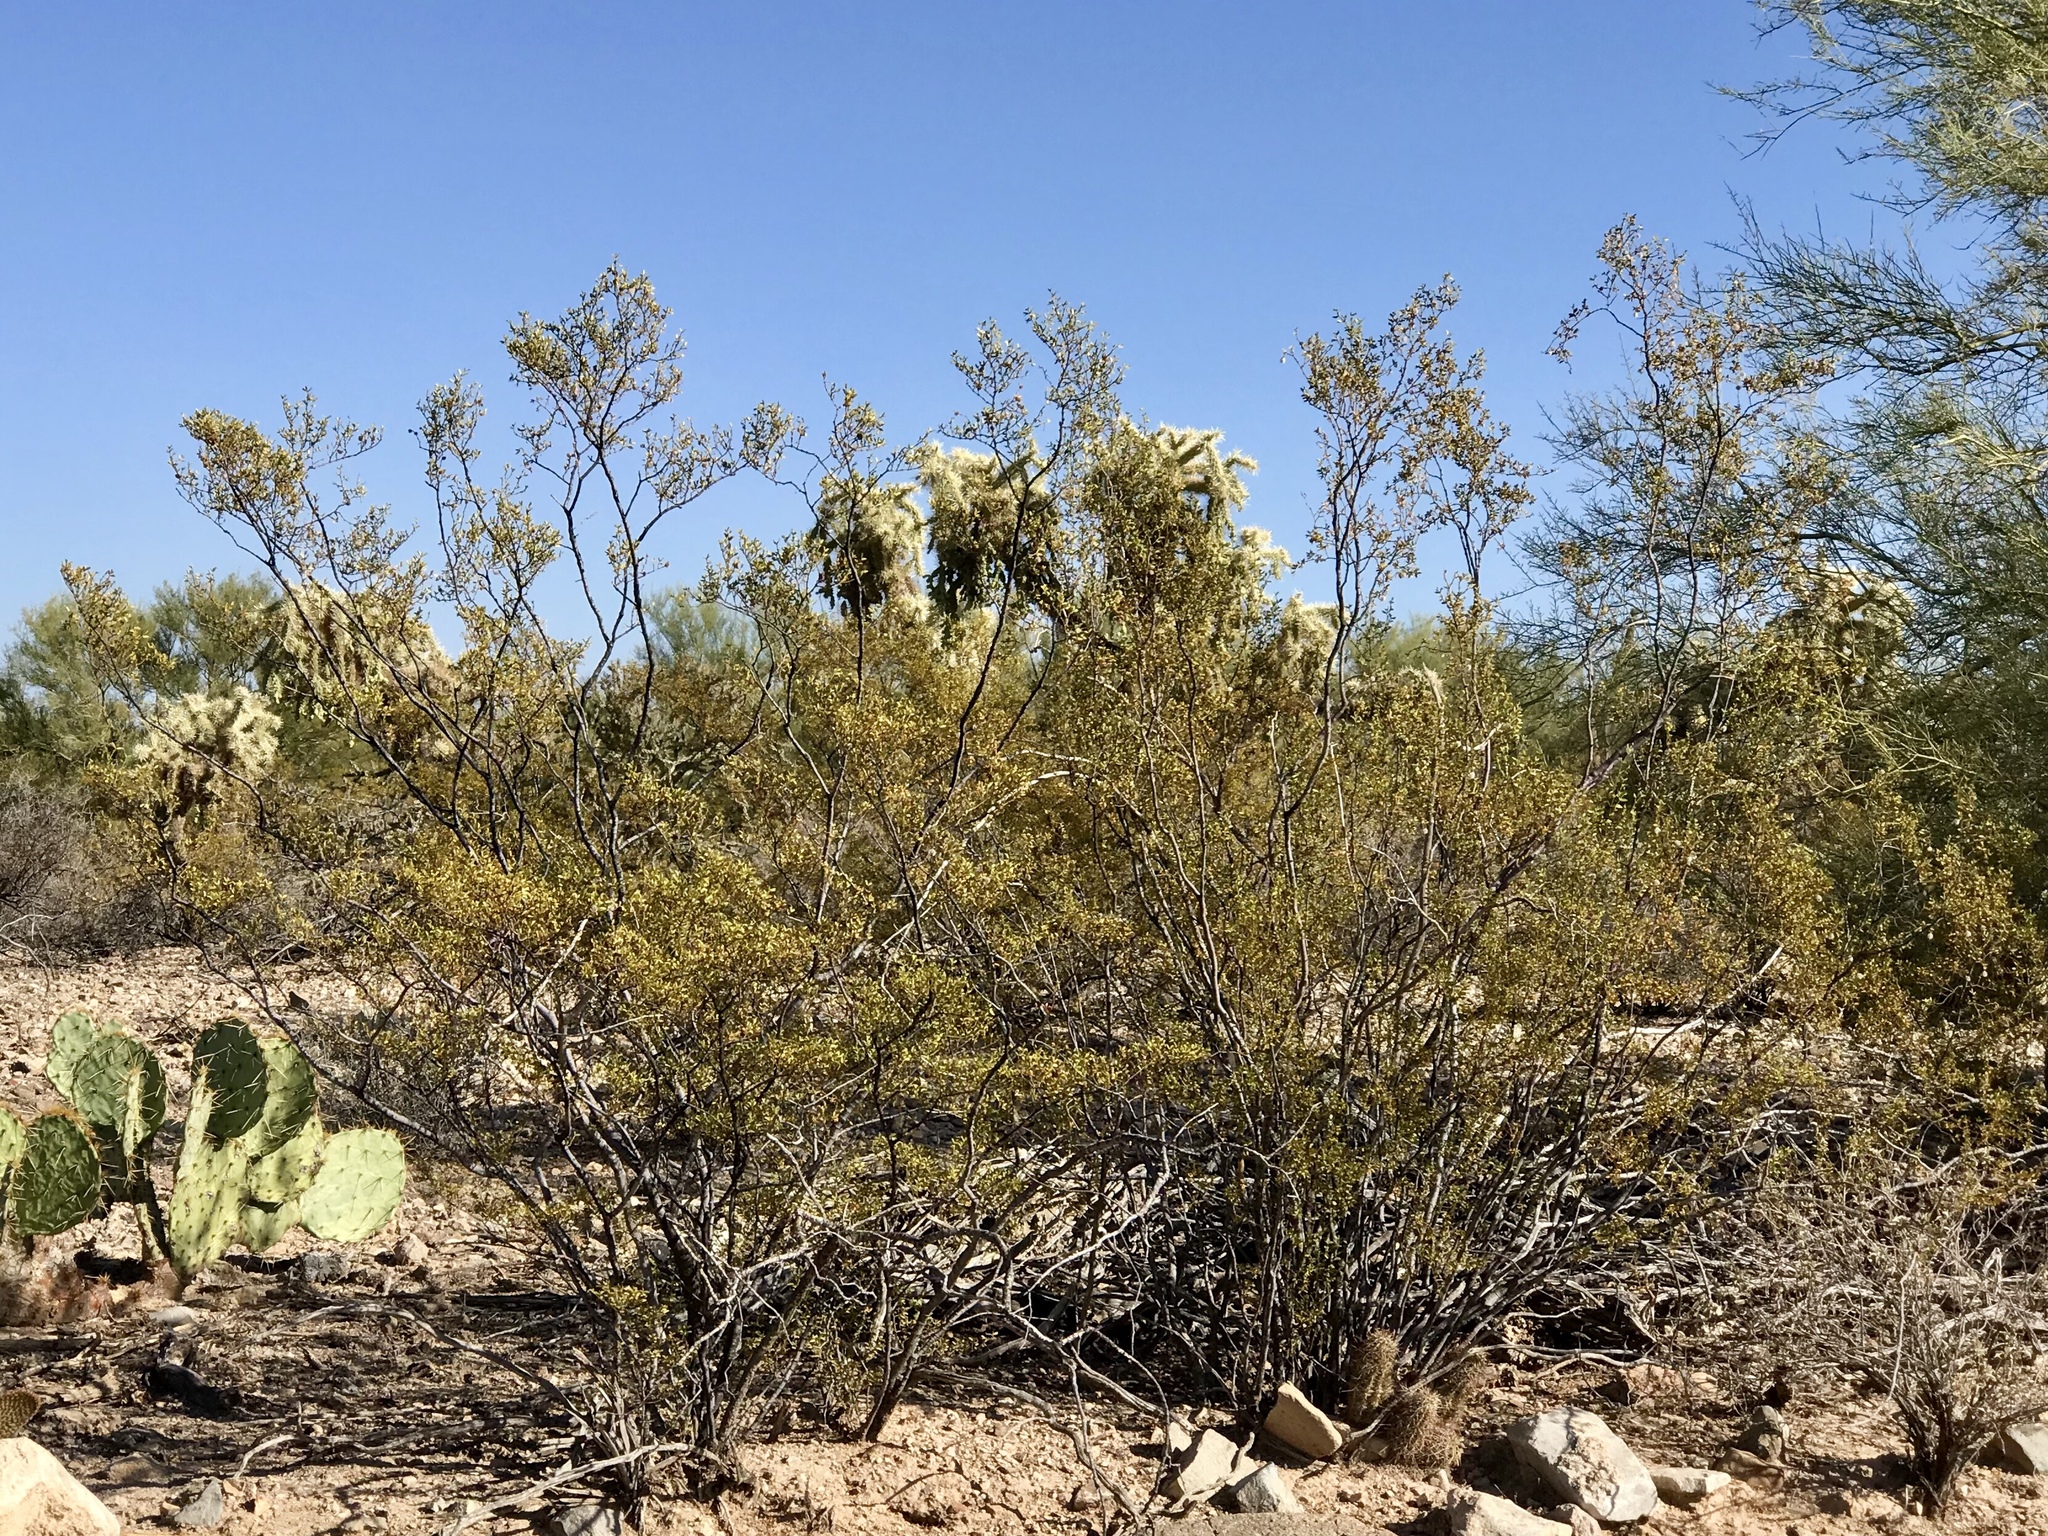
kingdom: Plantae
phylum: Tracheophyta
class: Magnoliopsida
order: Zygophyllales
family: Zygophyllaceae
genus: Larrea
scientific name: Larrea tridentata
